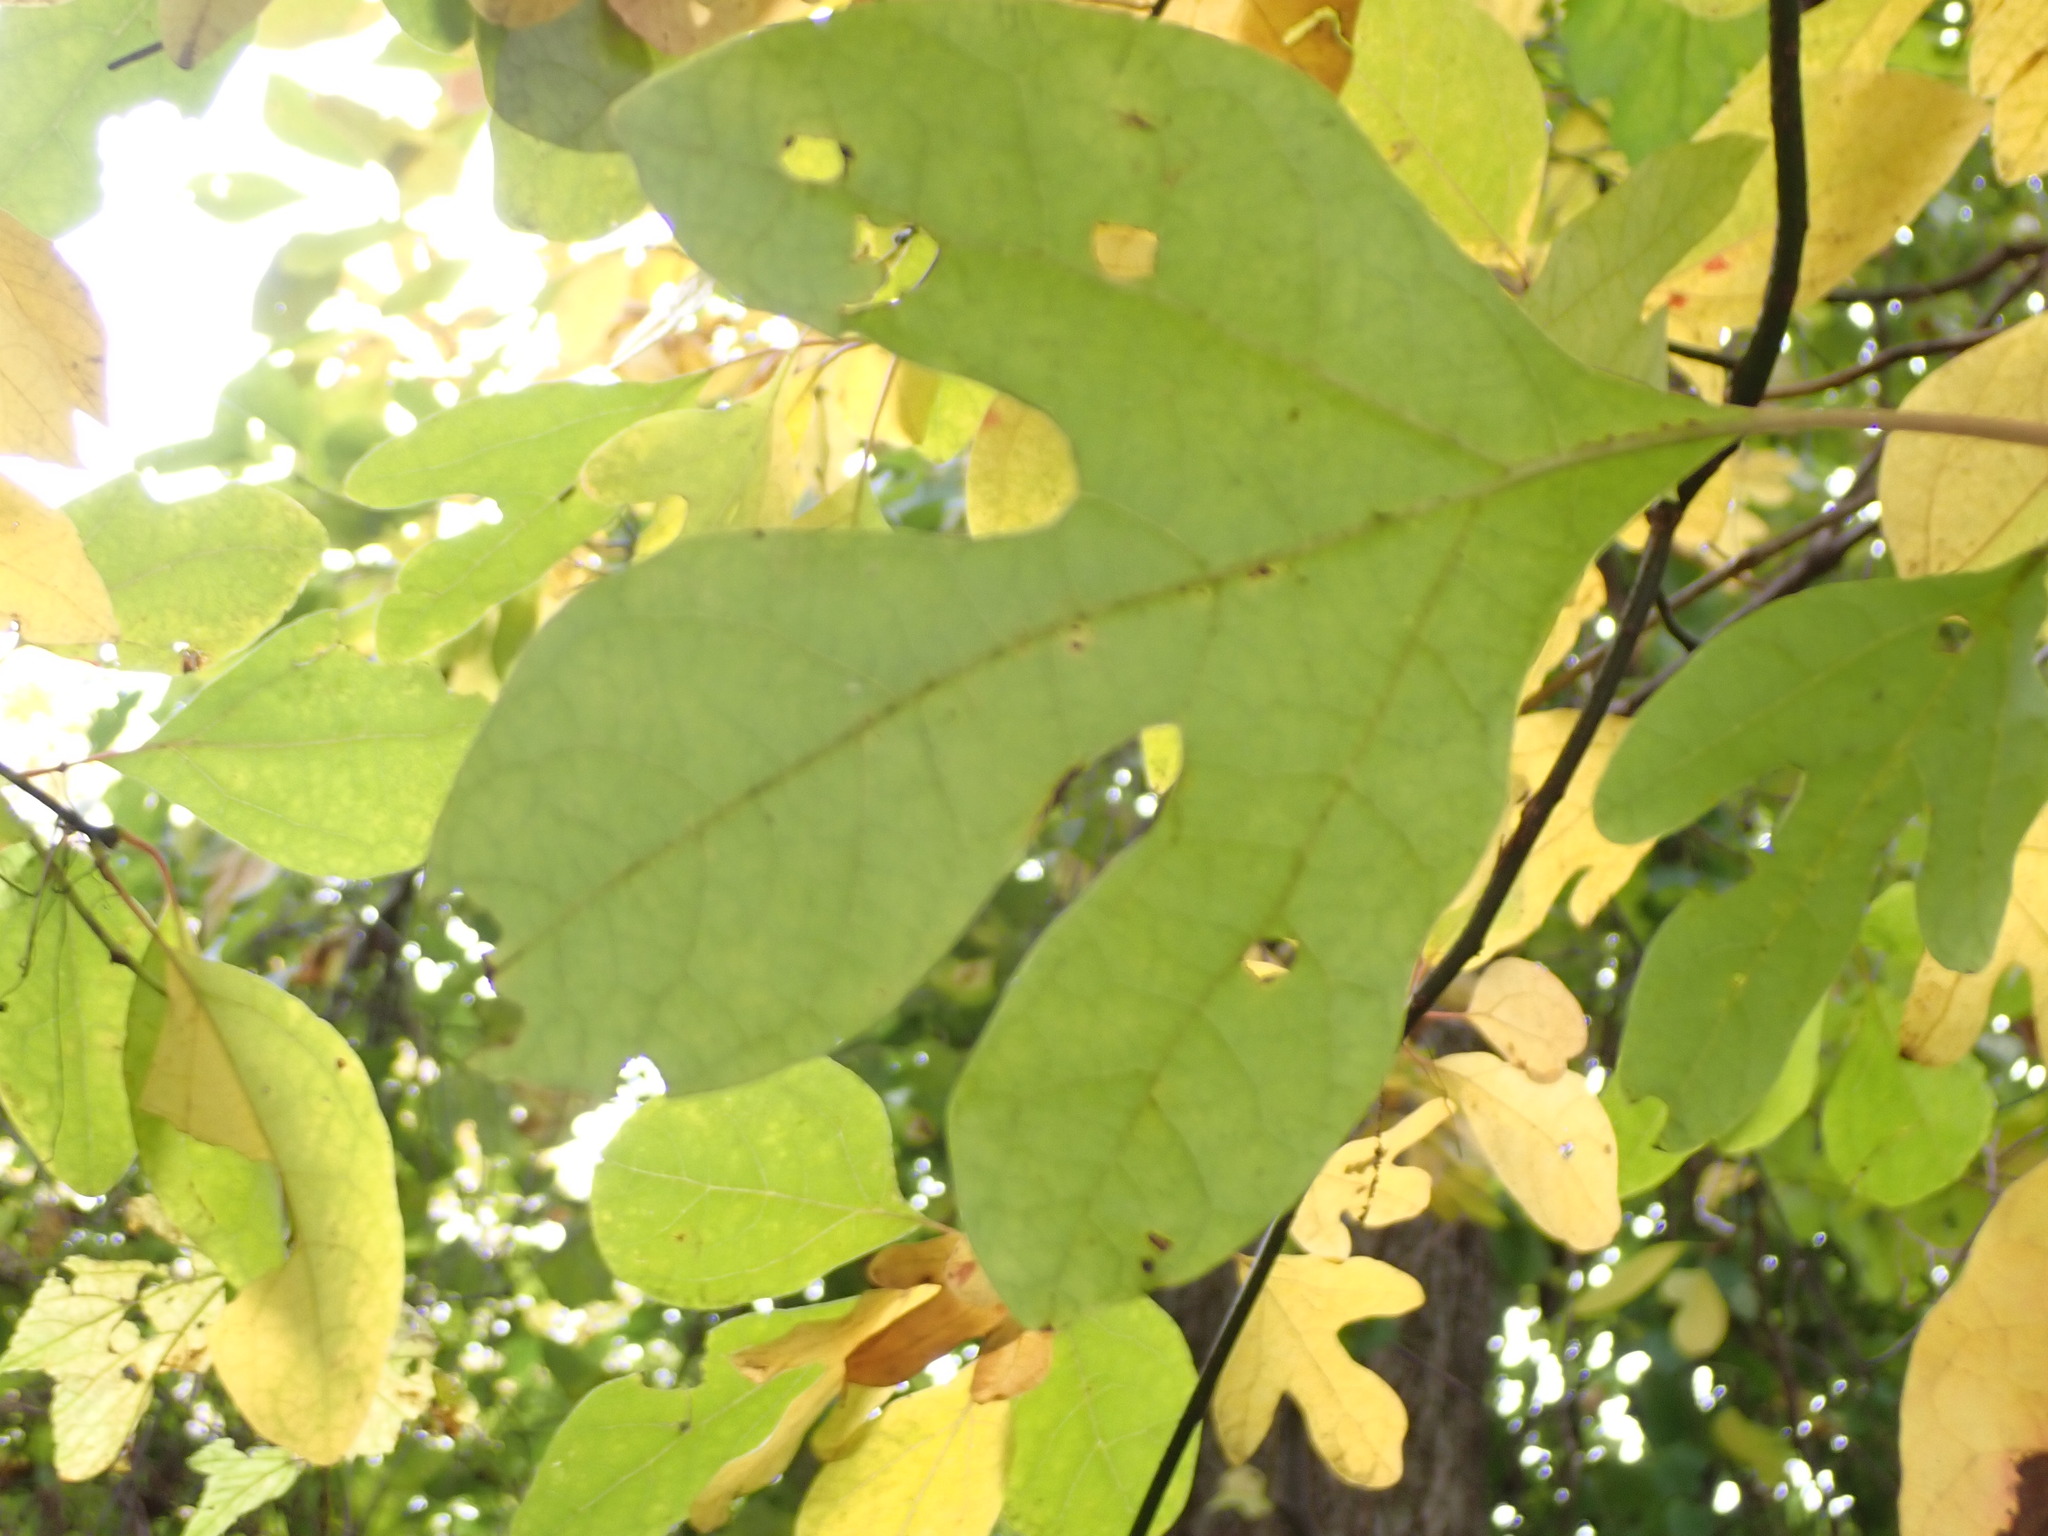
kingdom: Plantae
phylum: Tracheophyta
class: Magnoliopsida
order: Laurales
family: Lauraceae
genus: Sassafras
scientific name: Sassafras albidum
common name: Sassafras
